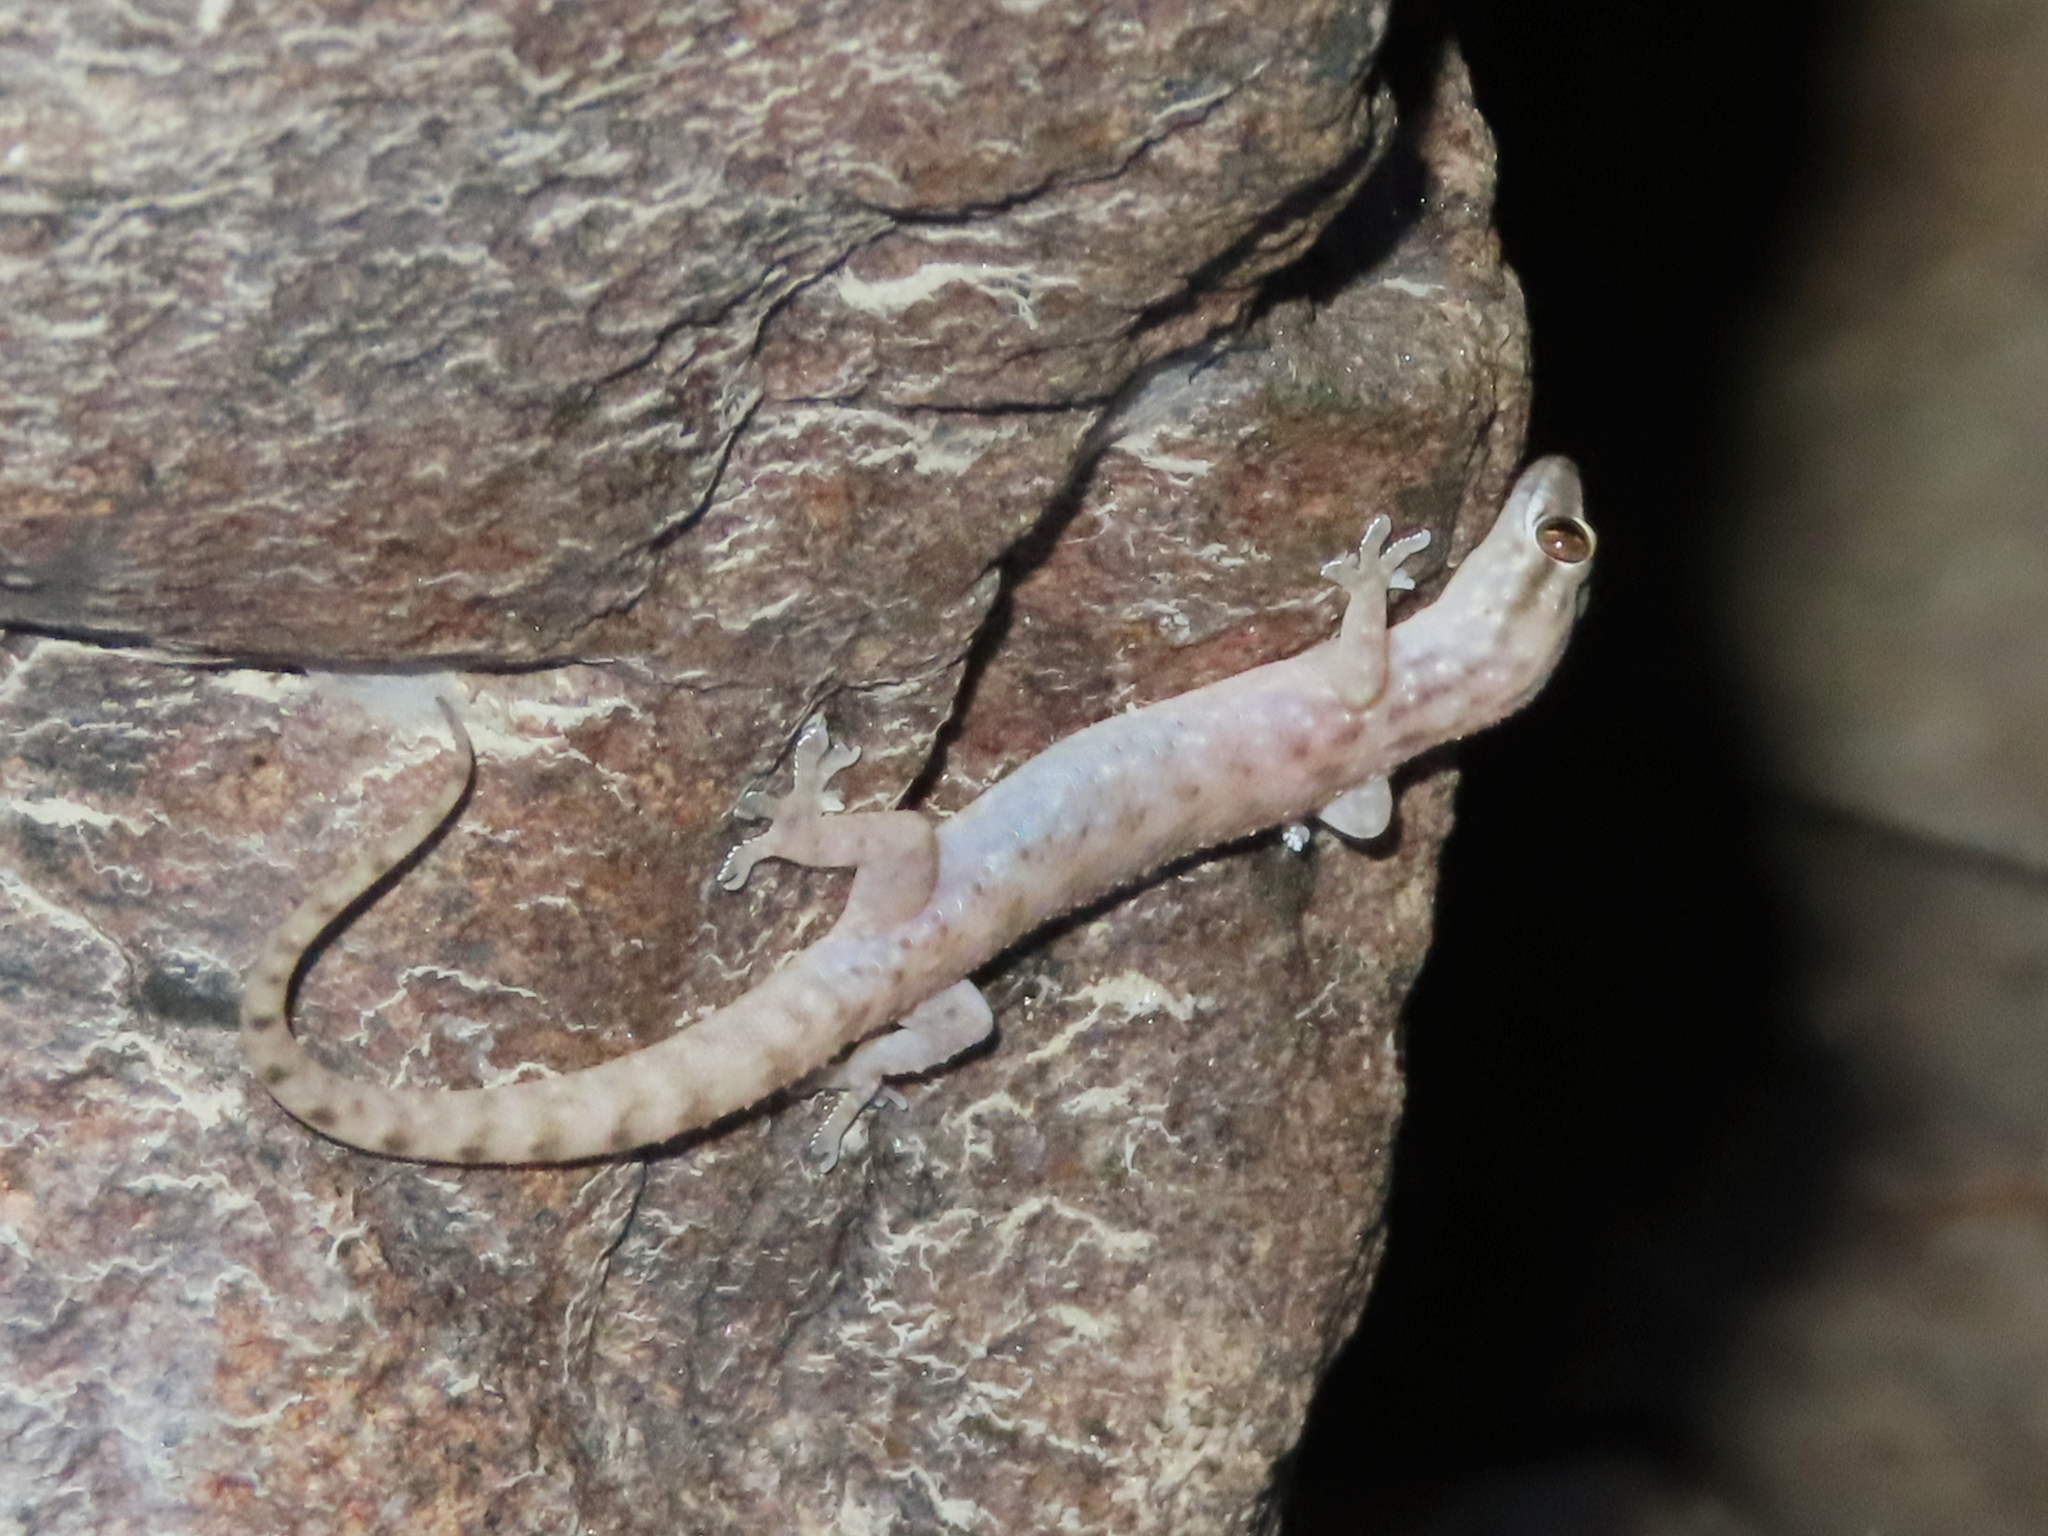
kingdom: Animalia
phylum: Chordata
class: Squamata
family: Gekkonidae
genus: Hemidactylus
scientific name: Hemidactylus robustus
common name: Heyden’s gecko
